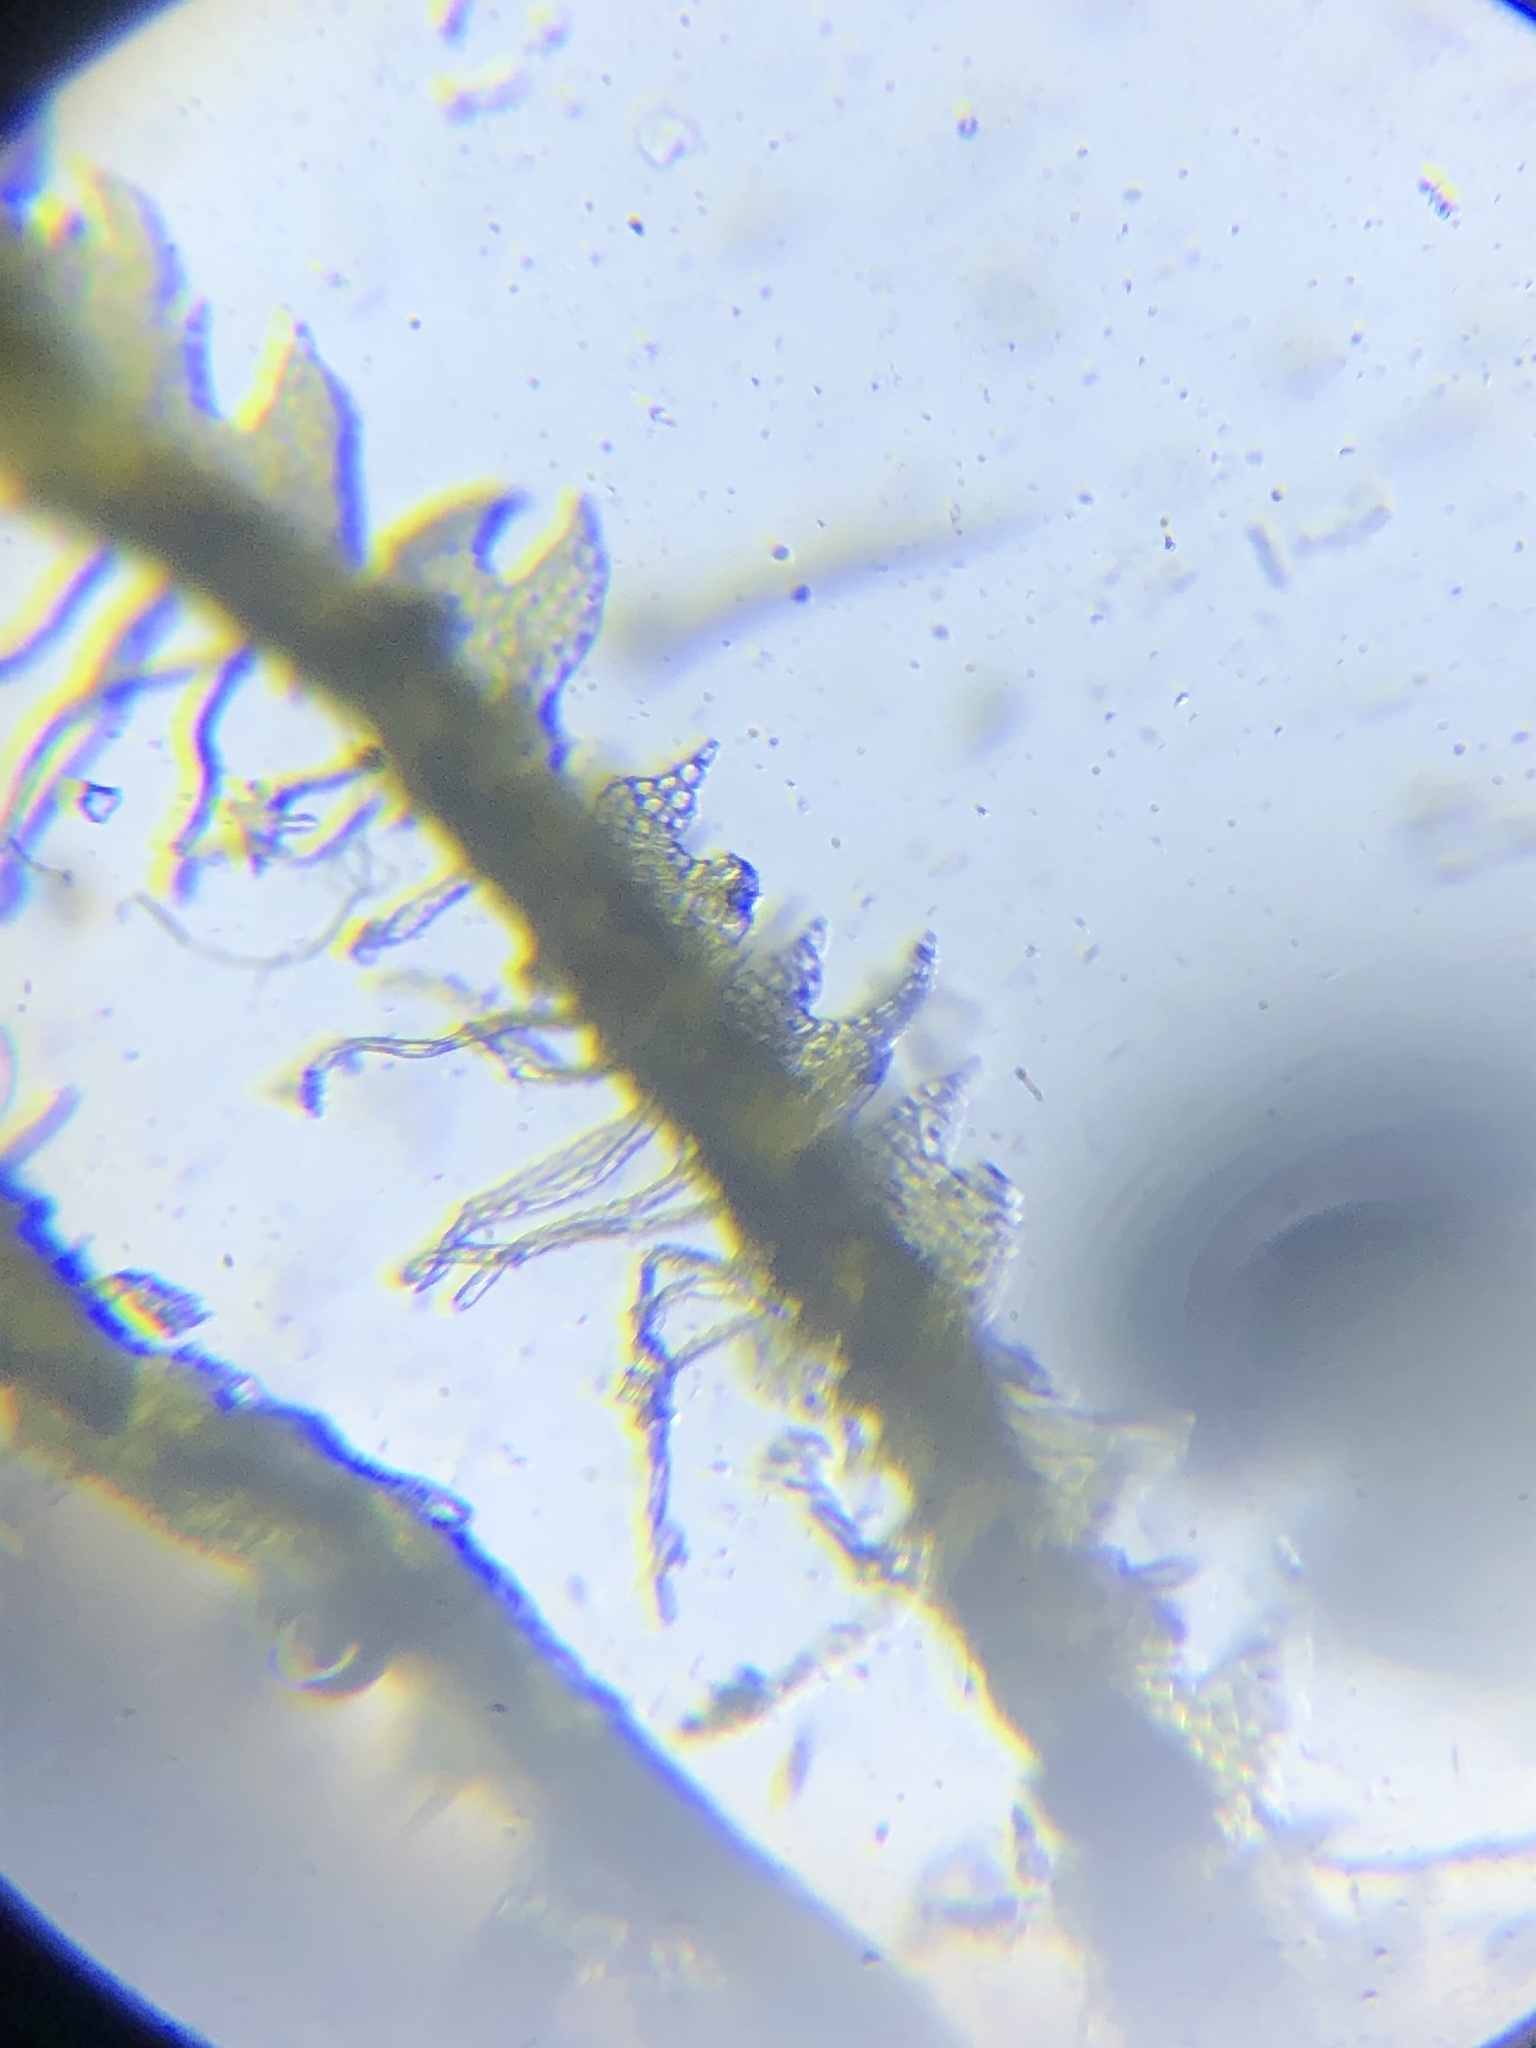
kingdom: Plantae
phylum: Marchantiophyta
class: Jungermanniopsida
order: Jungermanniales
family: Cephaloziaceae
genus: Fuscocephaloziopsis
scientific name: Fuscocephaloziopsis connivens
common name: Forcipated pincerwort
